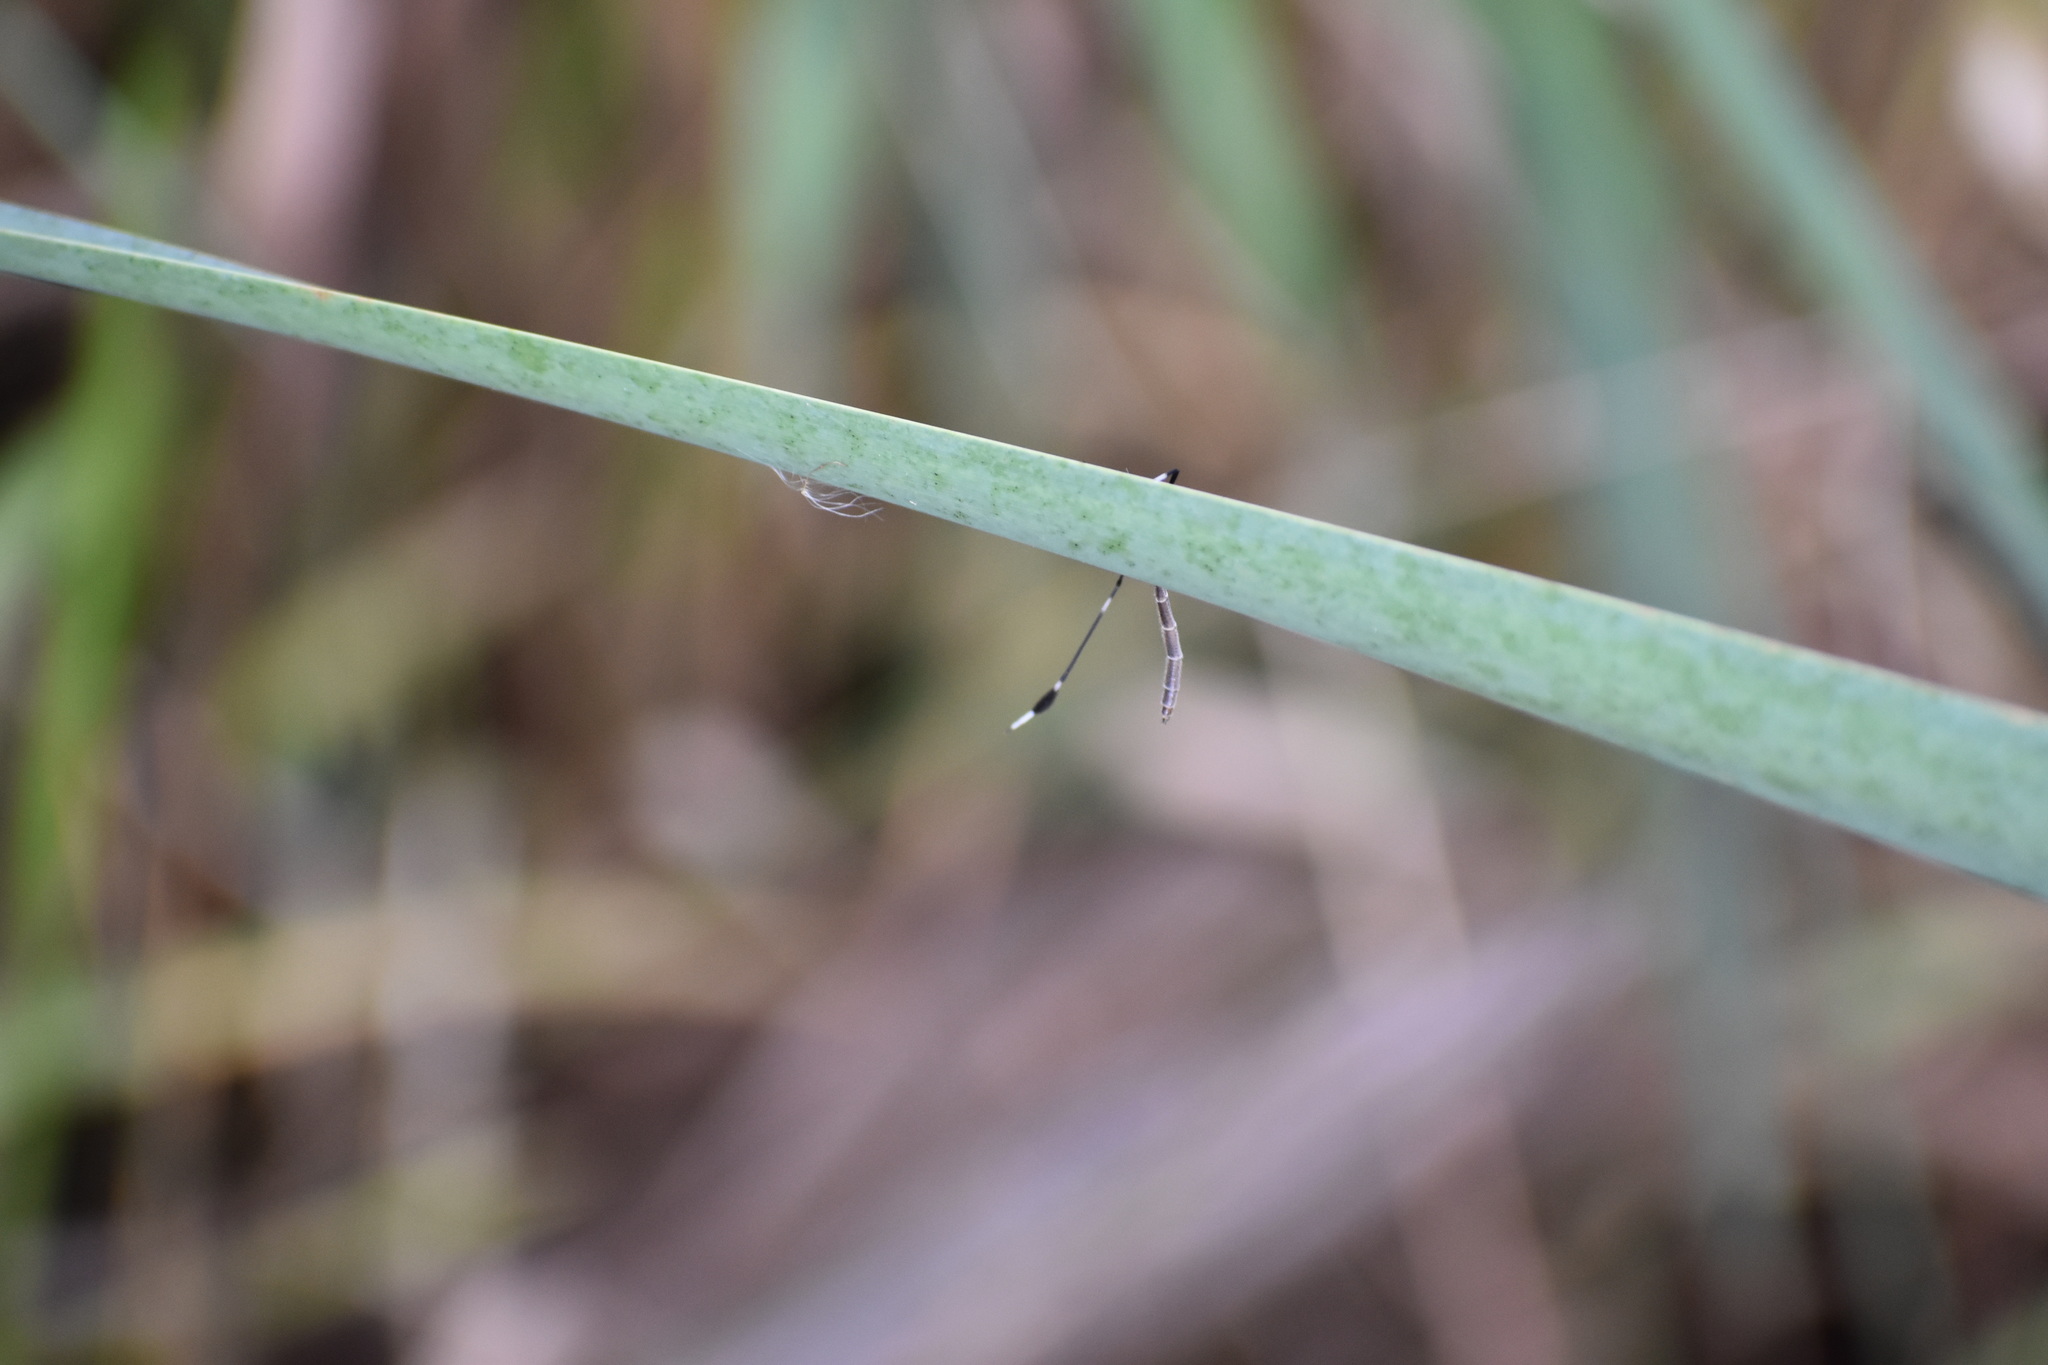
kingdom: Animalia
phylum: Arthropoda
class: Insecta
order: Diptera
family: Ptychopteridae
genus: Bittacomorpha
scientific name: Bittacomorpha clavipes
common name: Eastern phantom crane fly
